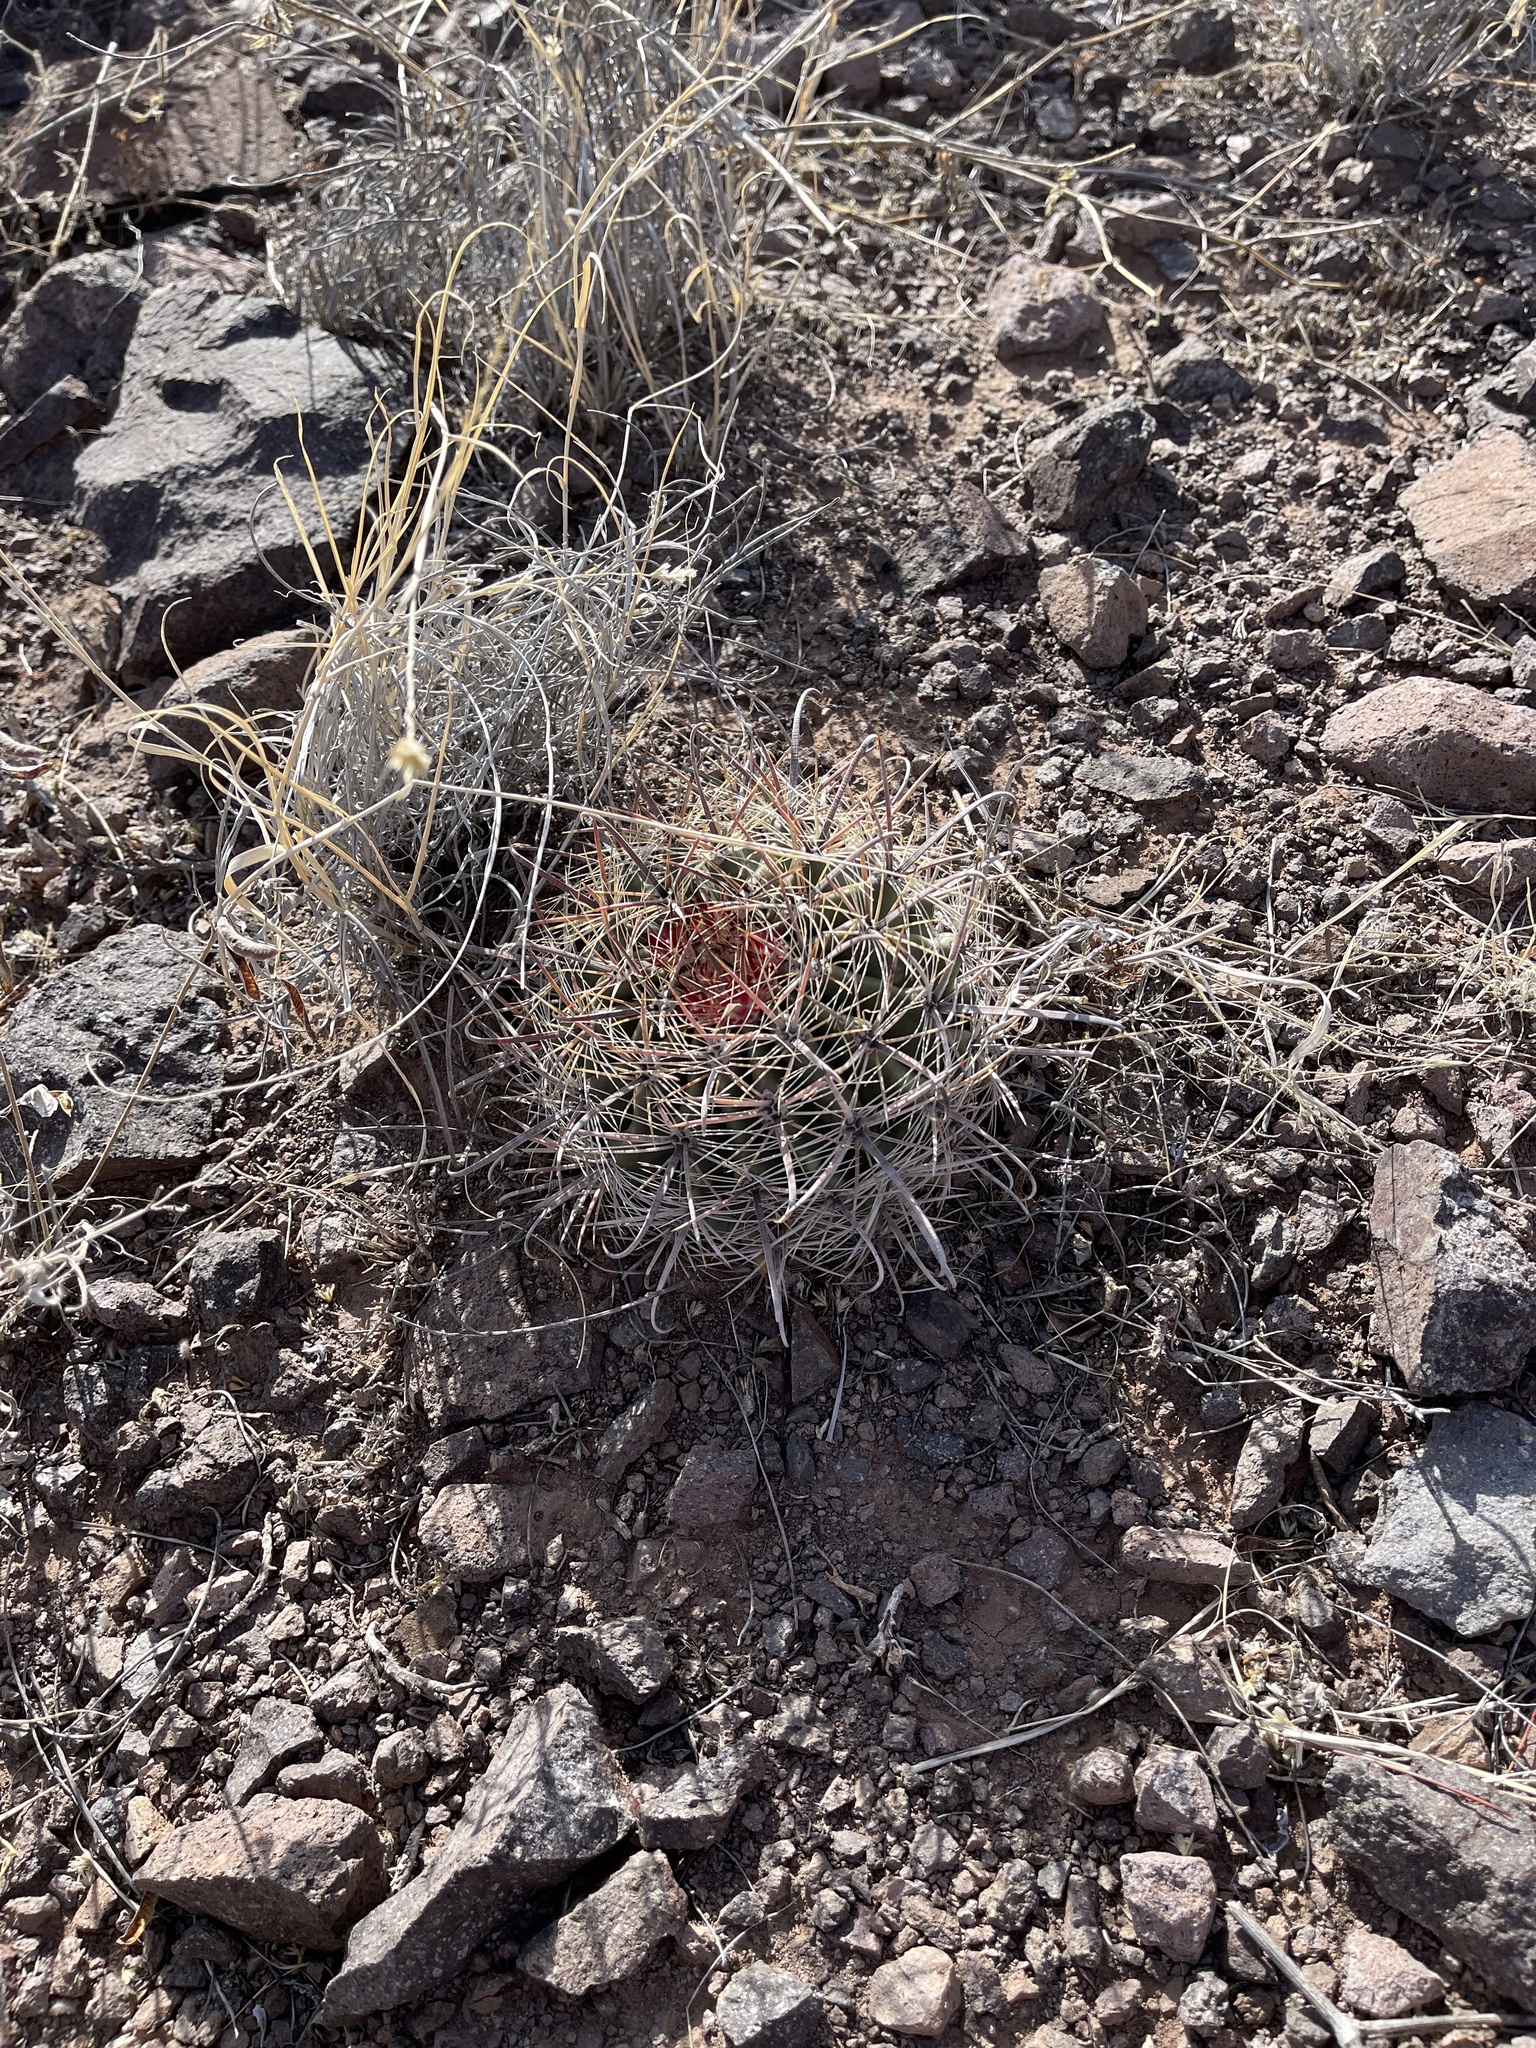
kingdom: Plantae
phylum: Tracheophyta
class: Magnoliopsida
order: Caryophyllales
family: Cactaceae
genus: Ferocactus
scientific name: Ferocactus wislizeni
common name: Candy barrel cactus
